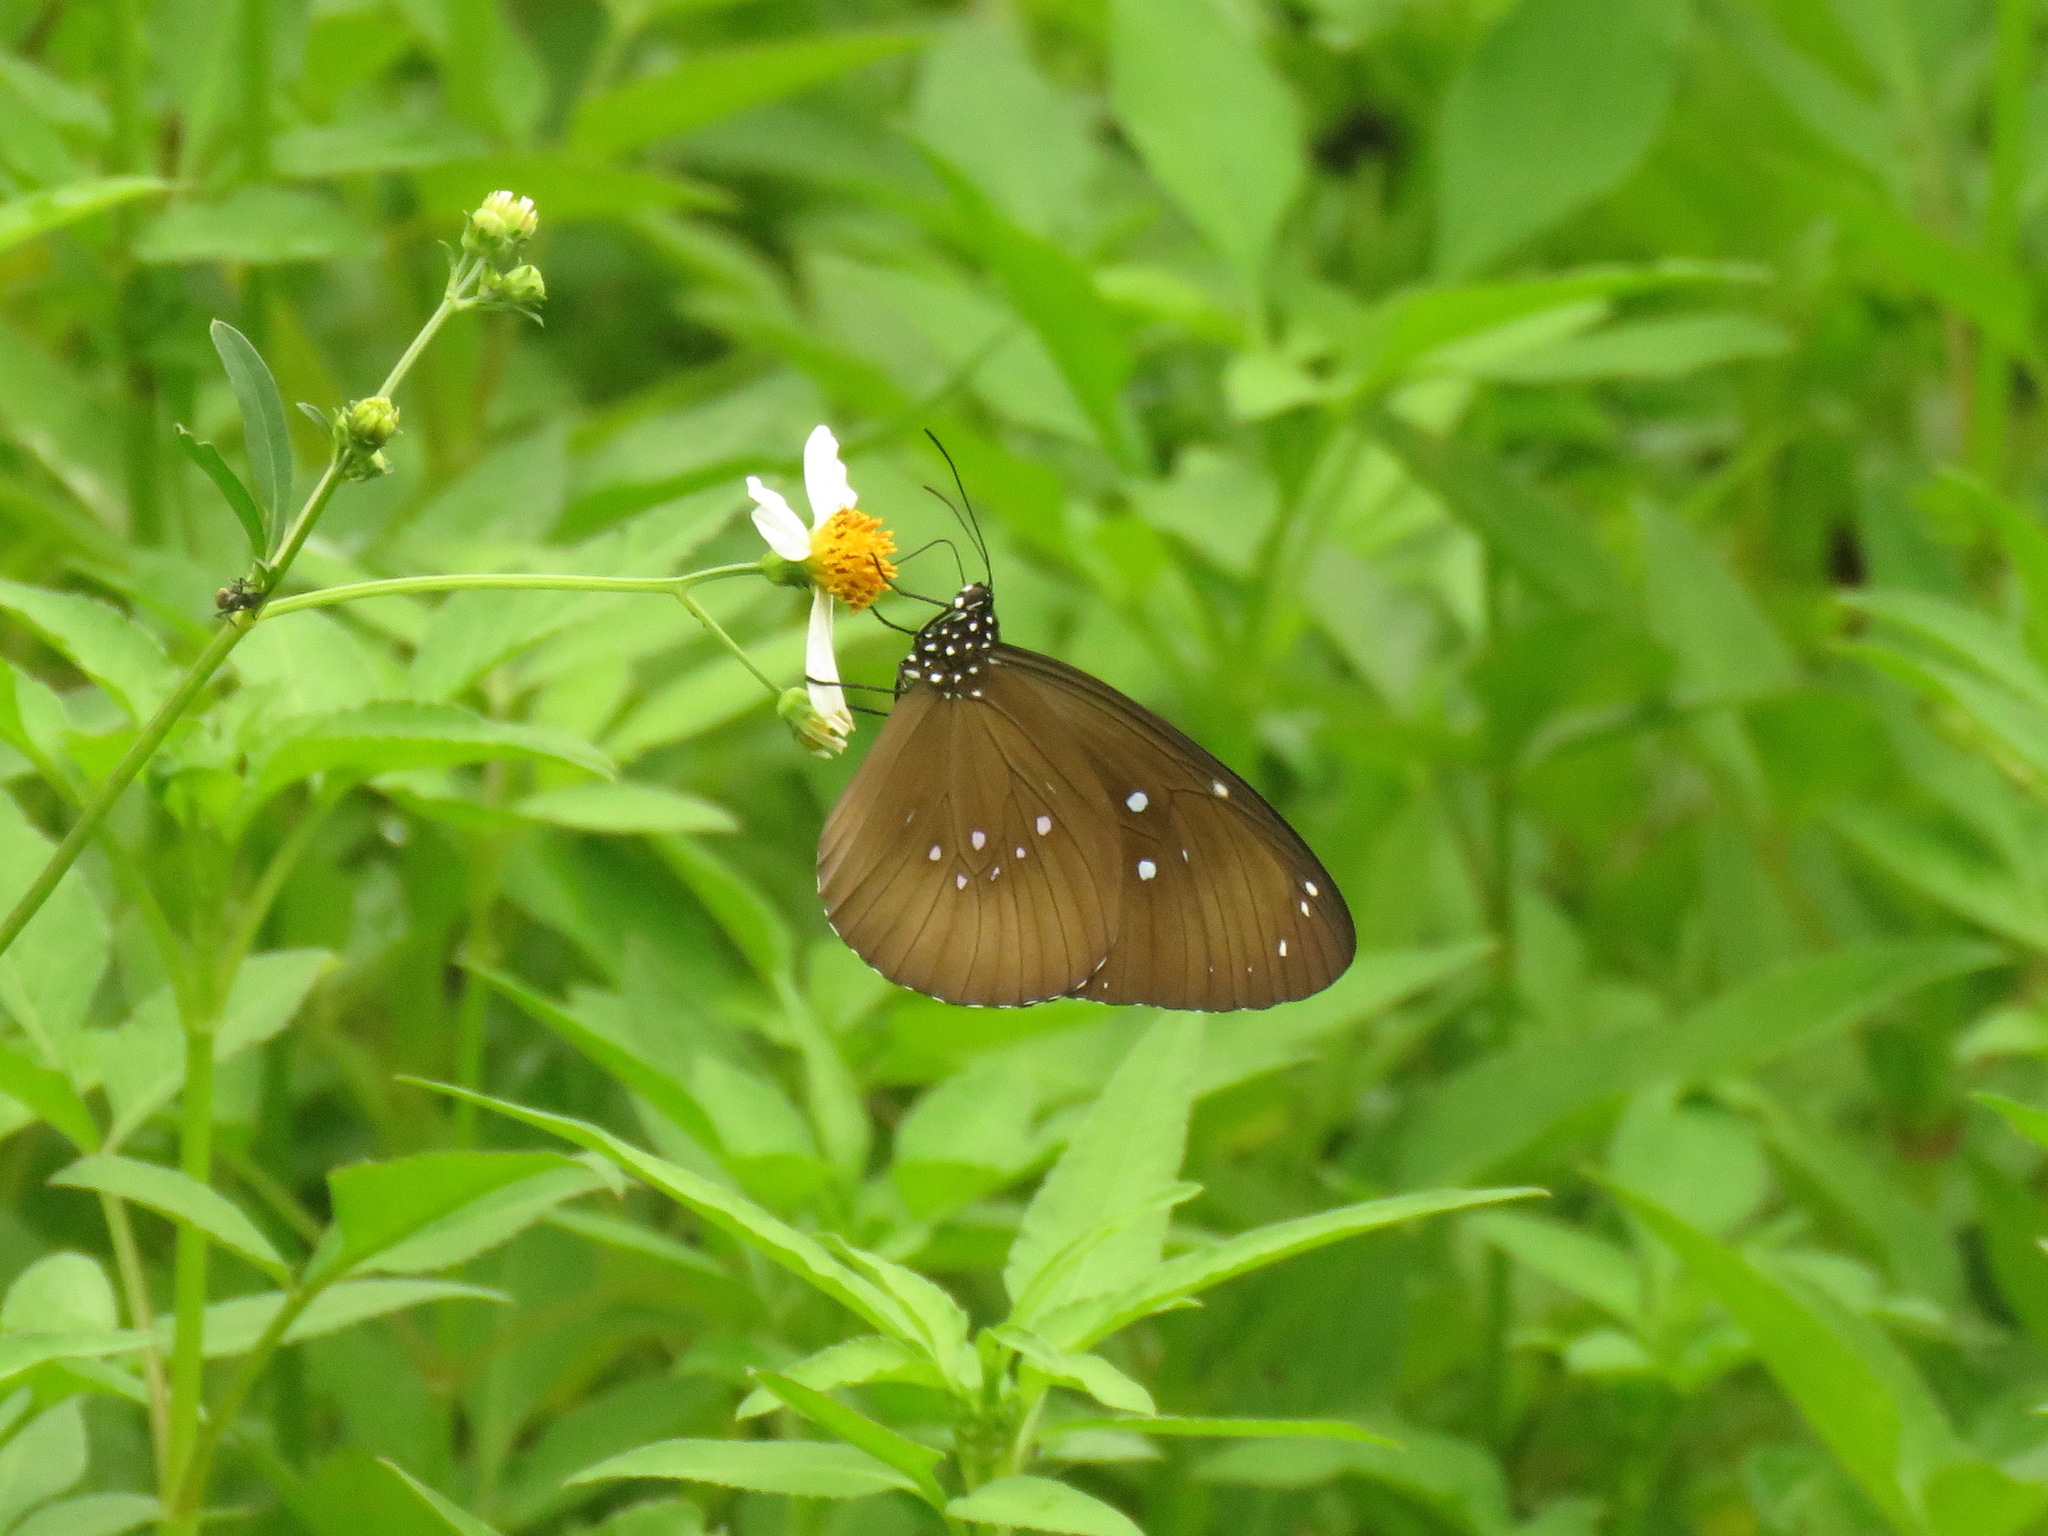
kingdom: Animalia
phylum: Arthropoda
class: Insecta
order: Lepidoptera
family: Nymphalidae
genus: Euploea
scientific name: Euploea core
